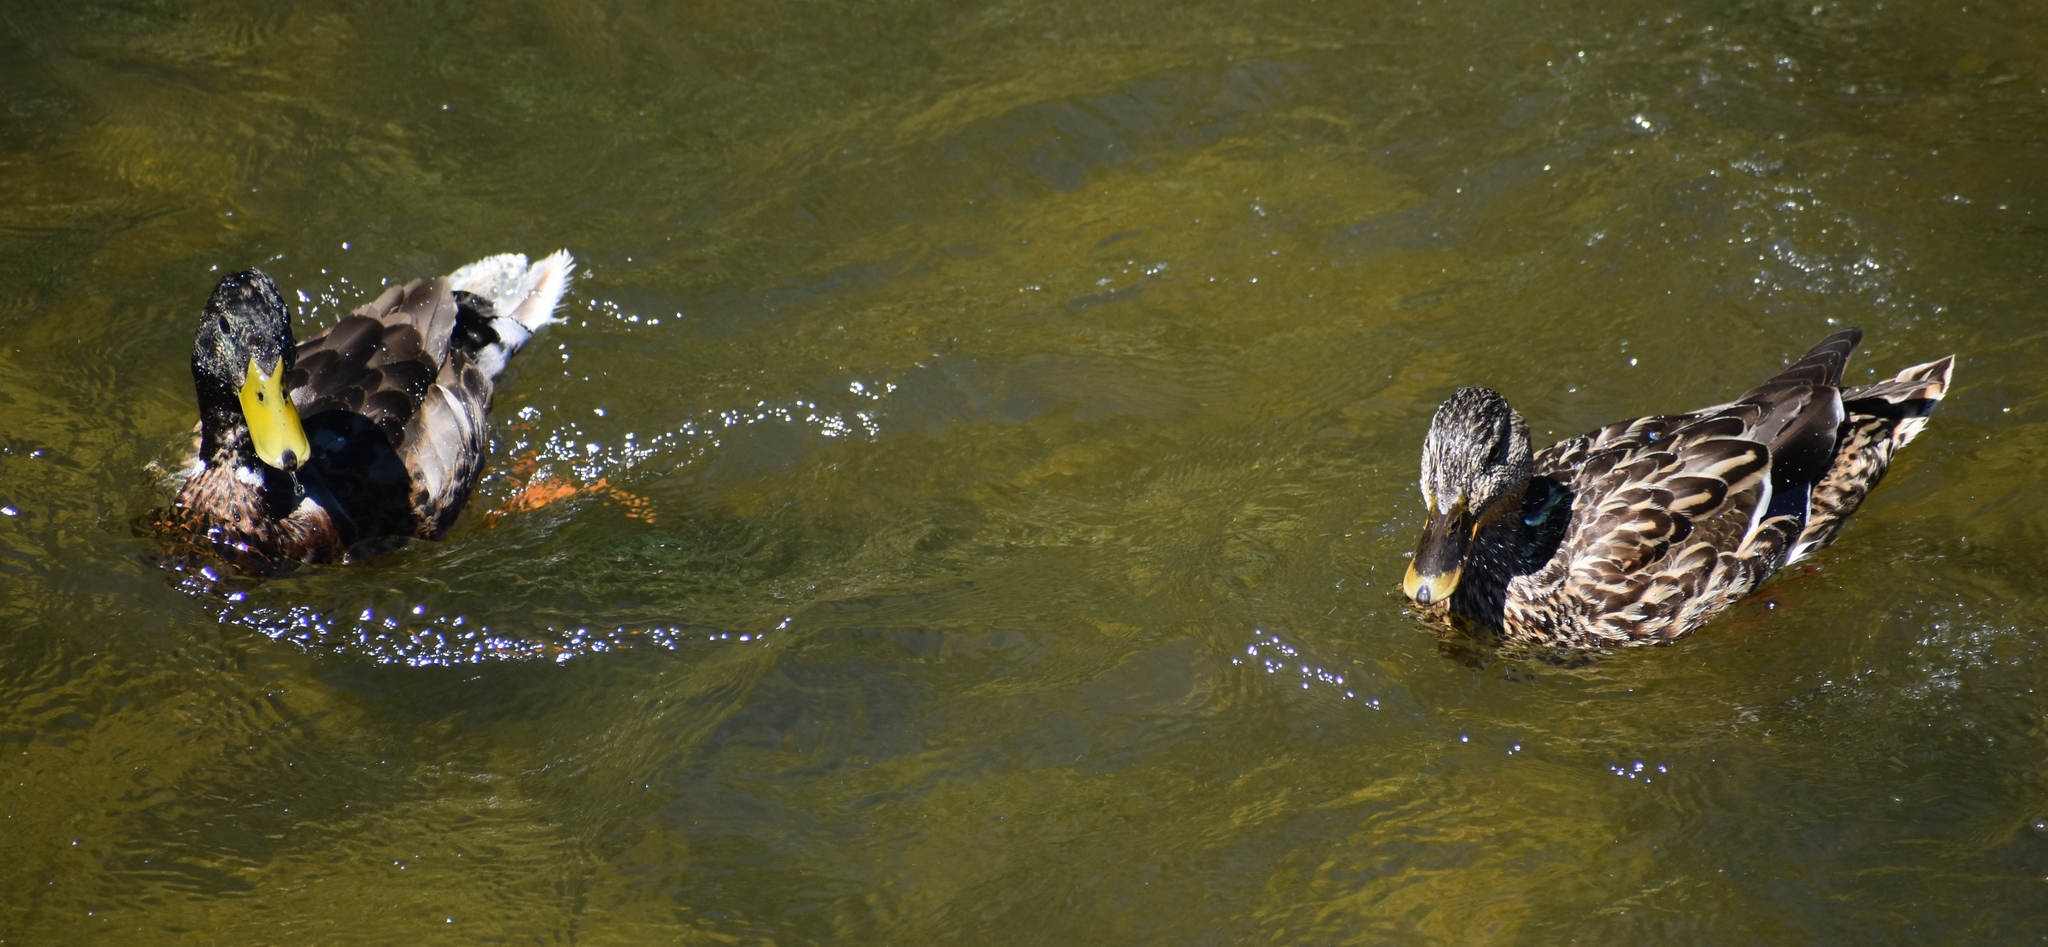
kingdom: Animalia
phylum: Chordata
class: Aves
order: Anseriformes
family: Anatidae
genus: Anas
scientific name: Anas platyrhynchos
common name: Mallard
